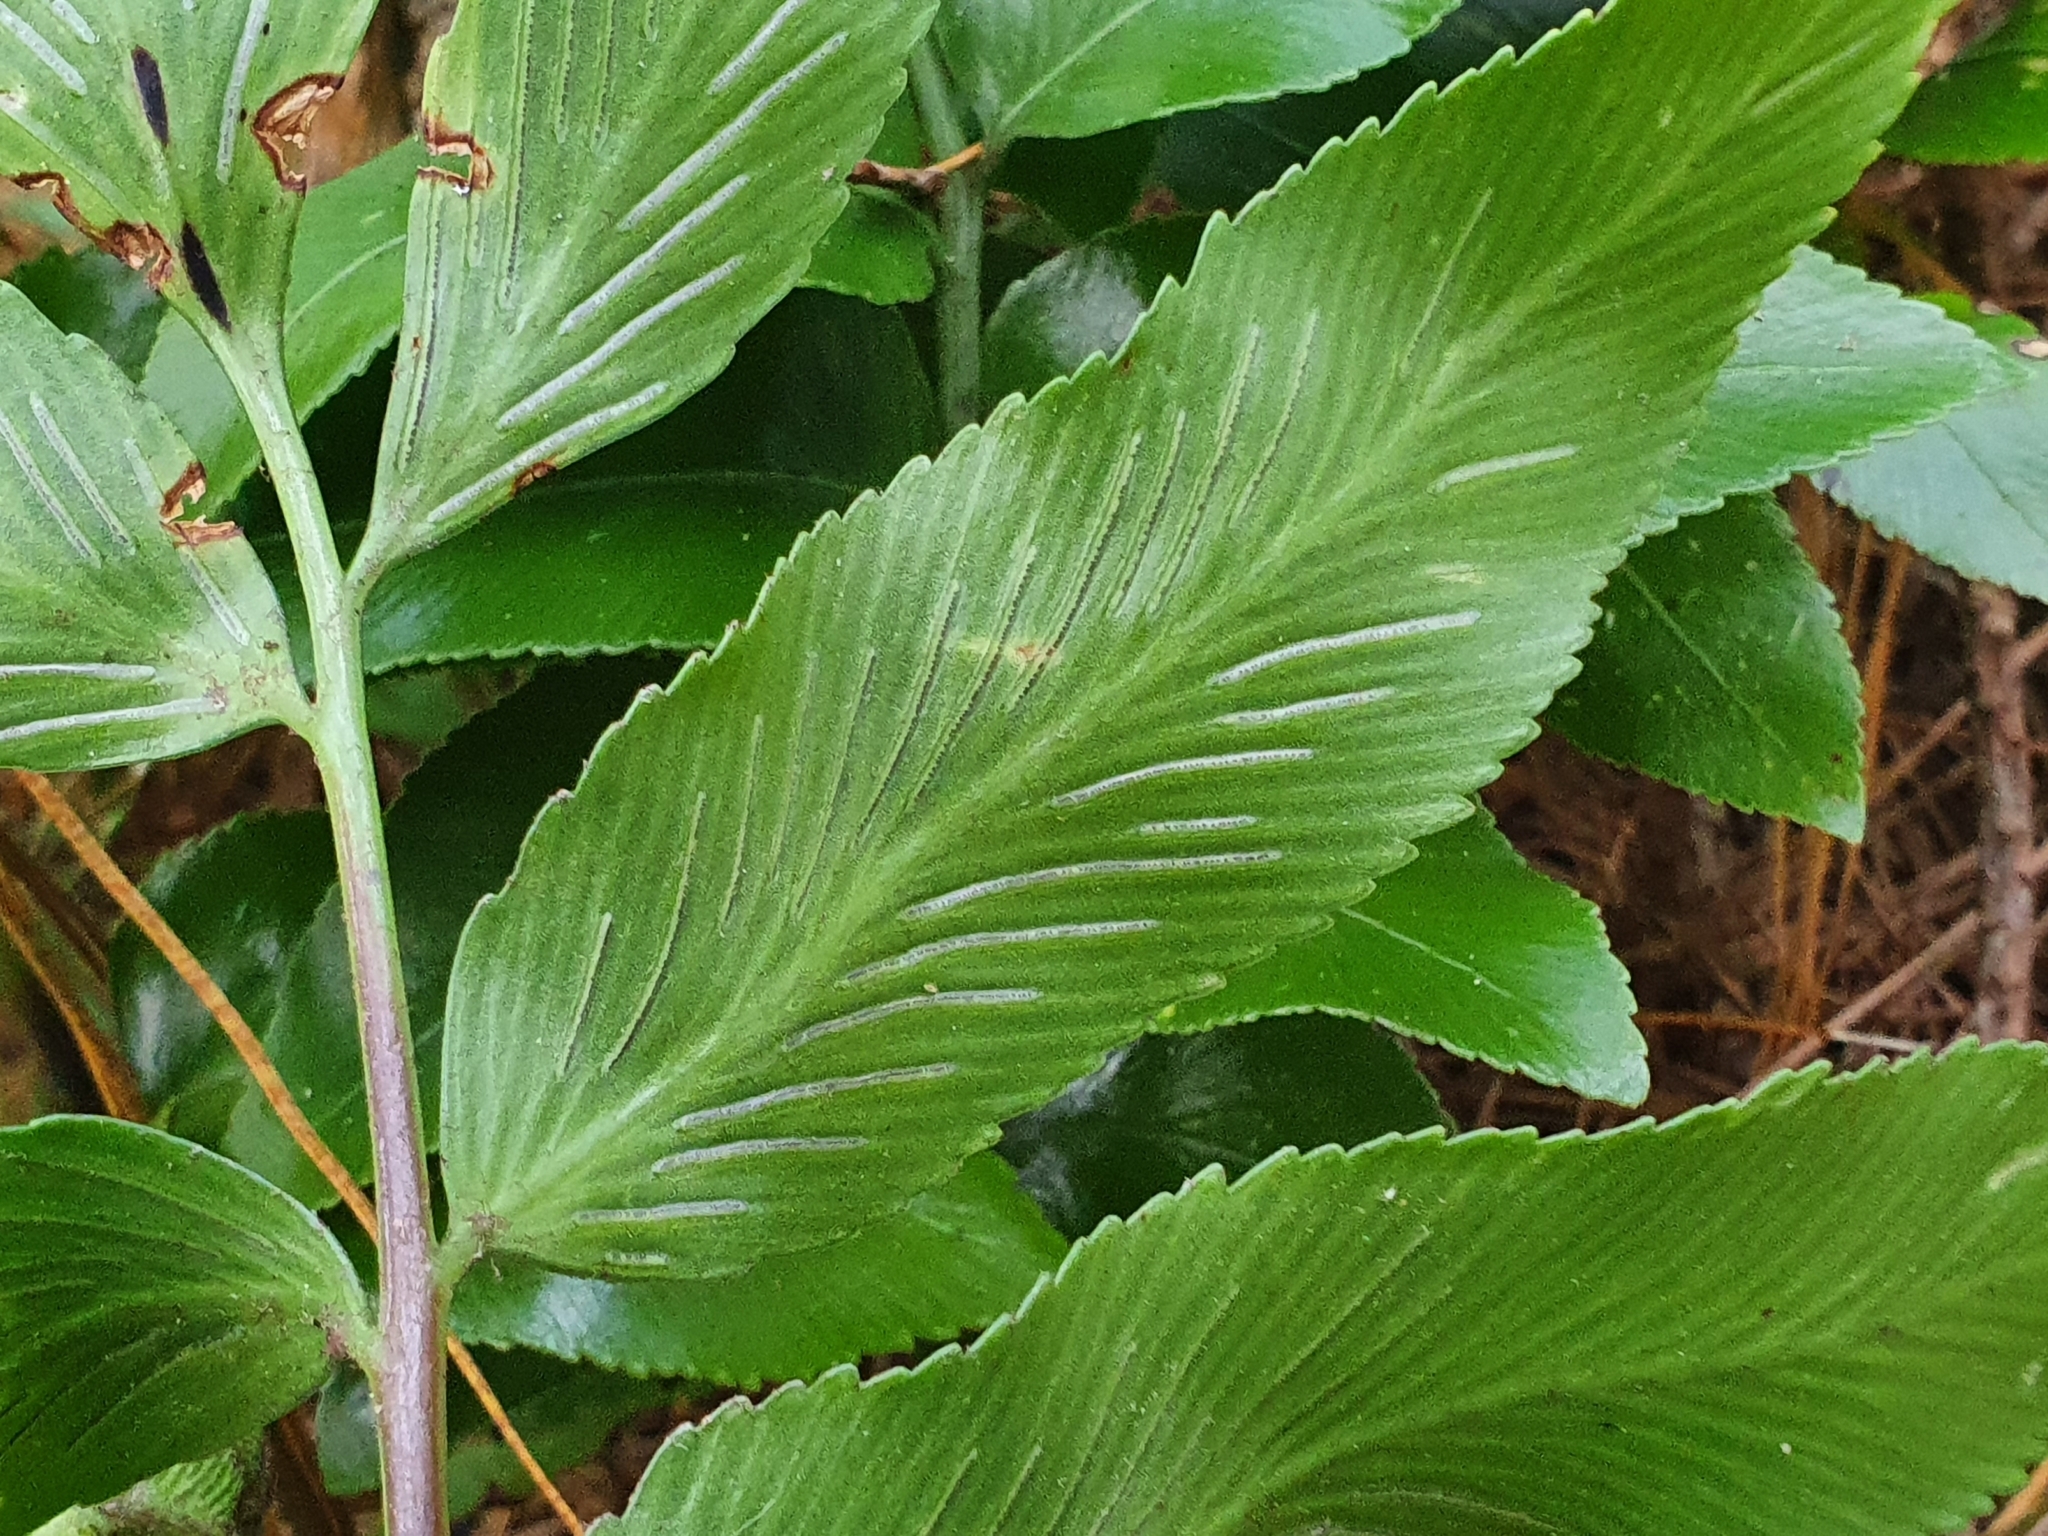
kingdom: Plantae
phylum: Tracheophyta
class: Polypodiopsida
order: Polypodiales
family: Aspleniaceae
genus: Asplenium
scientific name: Asplenium oblongifolium
